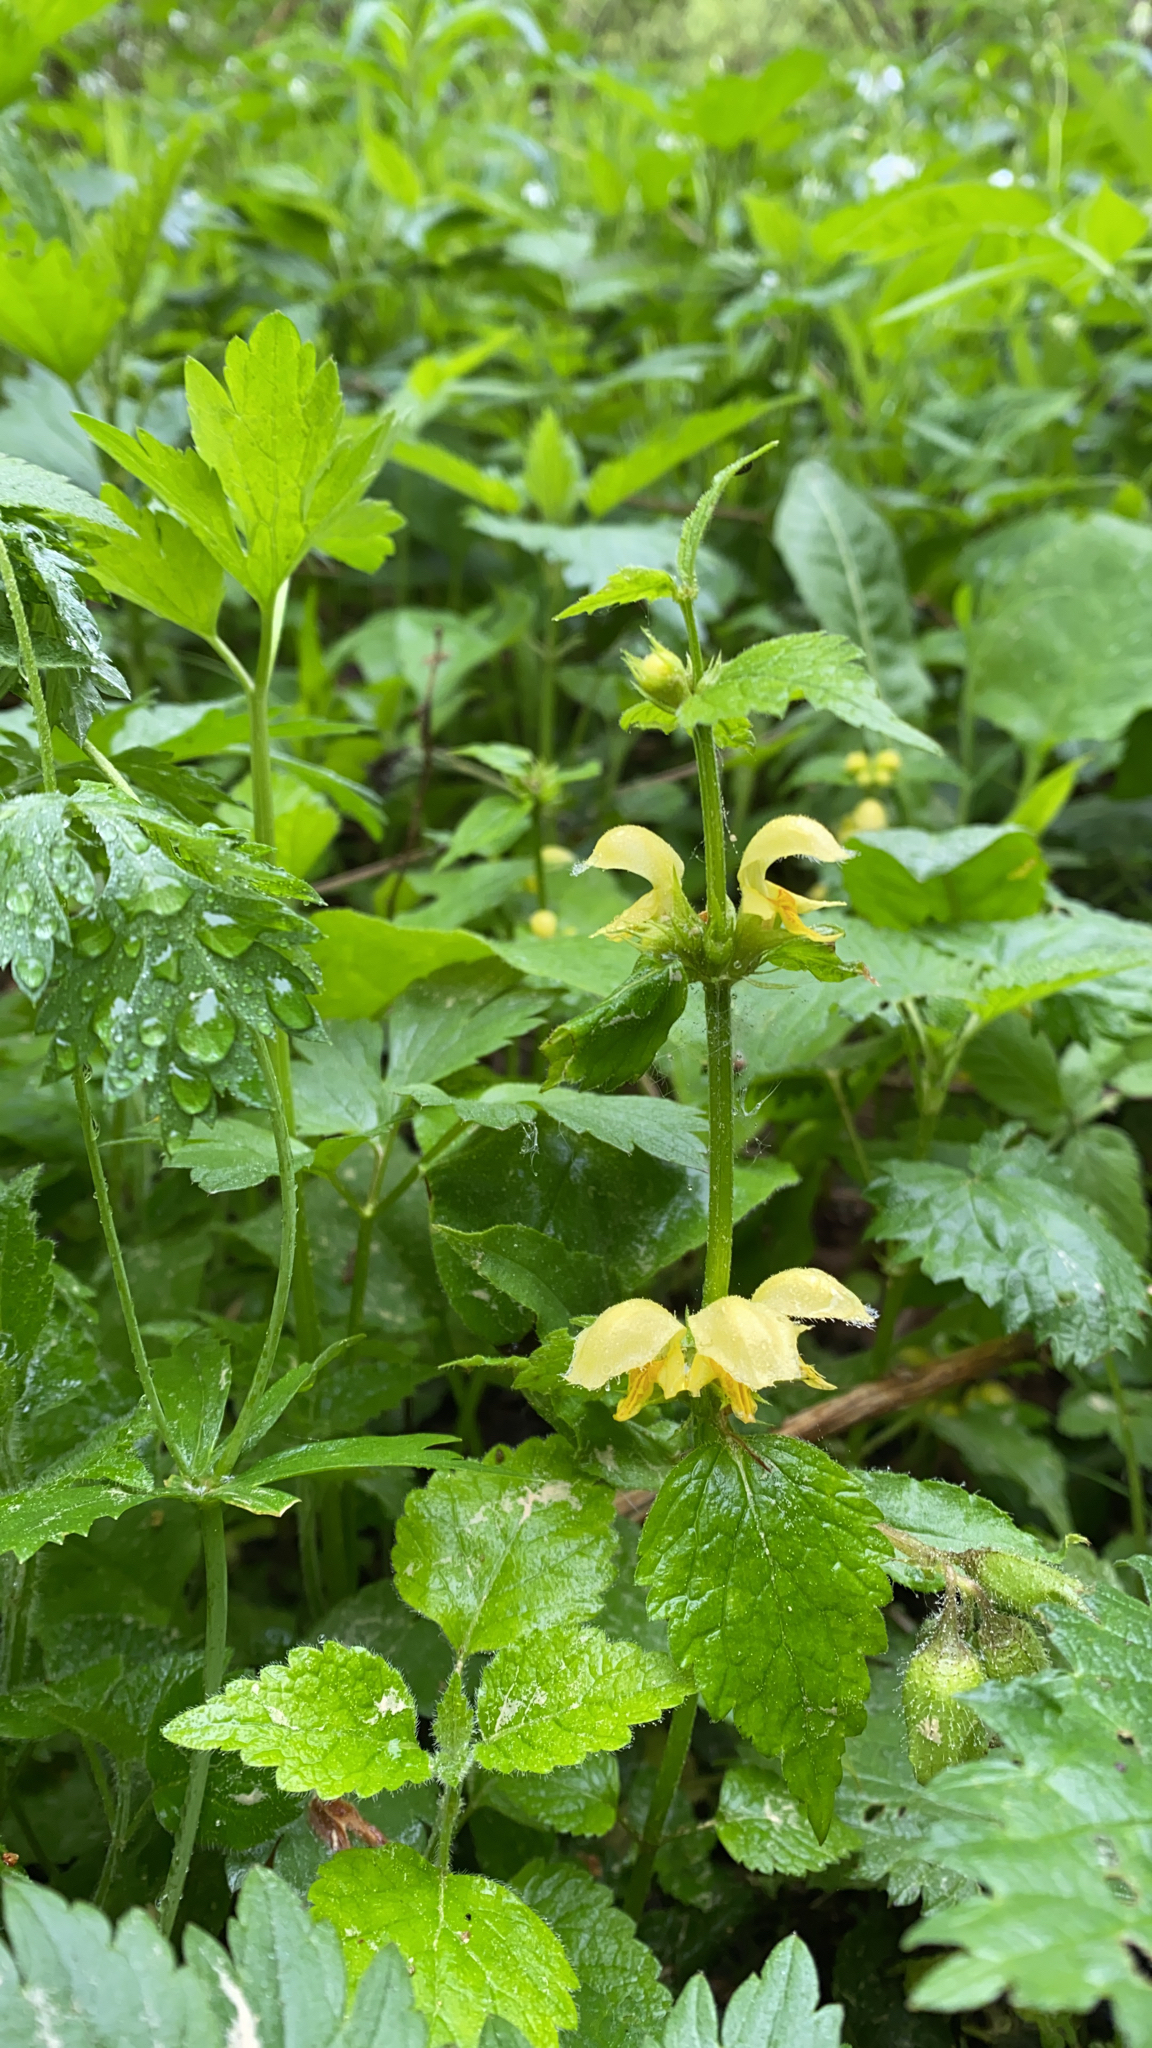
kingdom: Plantae
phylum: Tracheophyta
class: Magnoliopsida
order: Lamiales
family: Lamiaceae
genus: Lamium
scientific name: Lamium galeobdolon
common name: Yellow archangel
